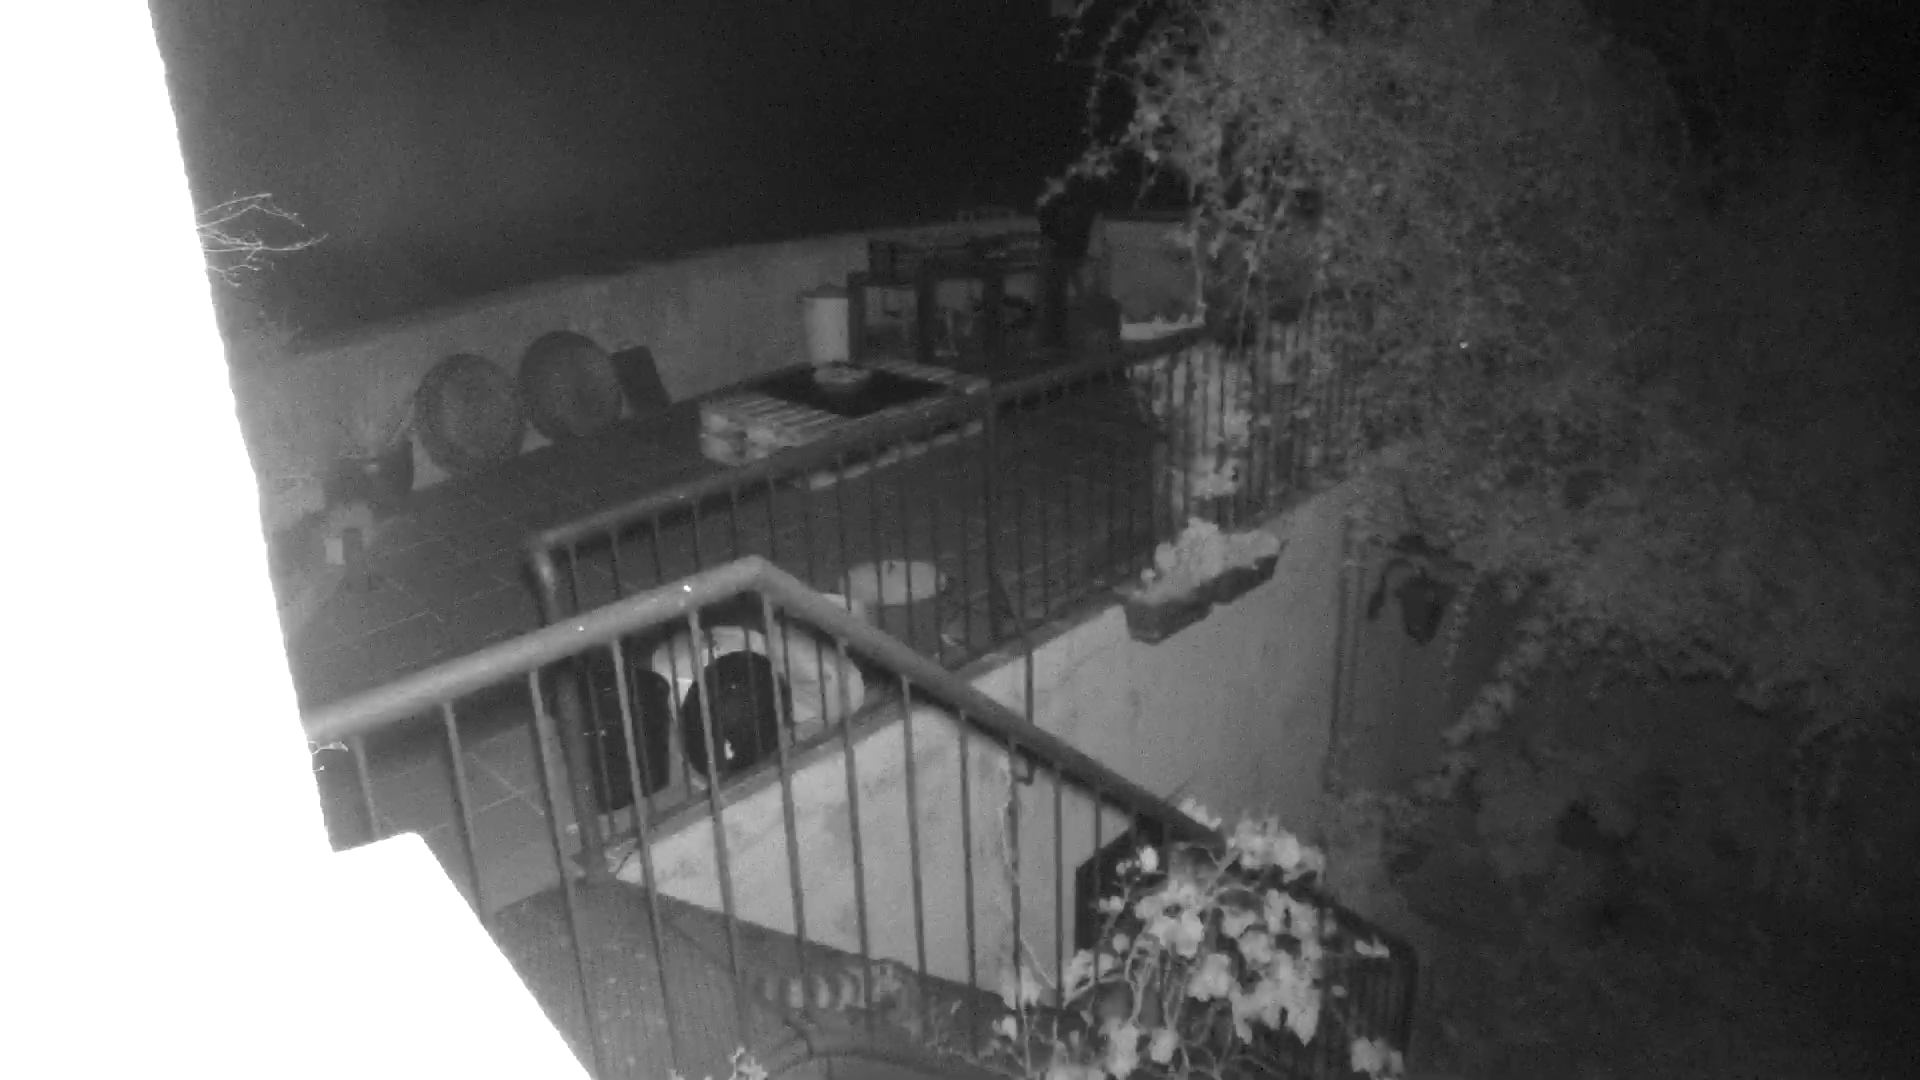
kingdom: Animalia
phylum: Chordata
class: Mammalia
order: Carnivora
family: Viverridae
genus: Genetta
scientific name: Genetta genetta
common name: Common genet
